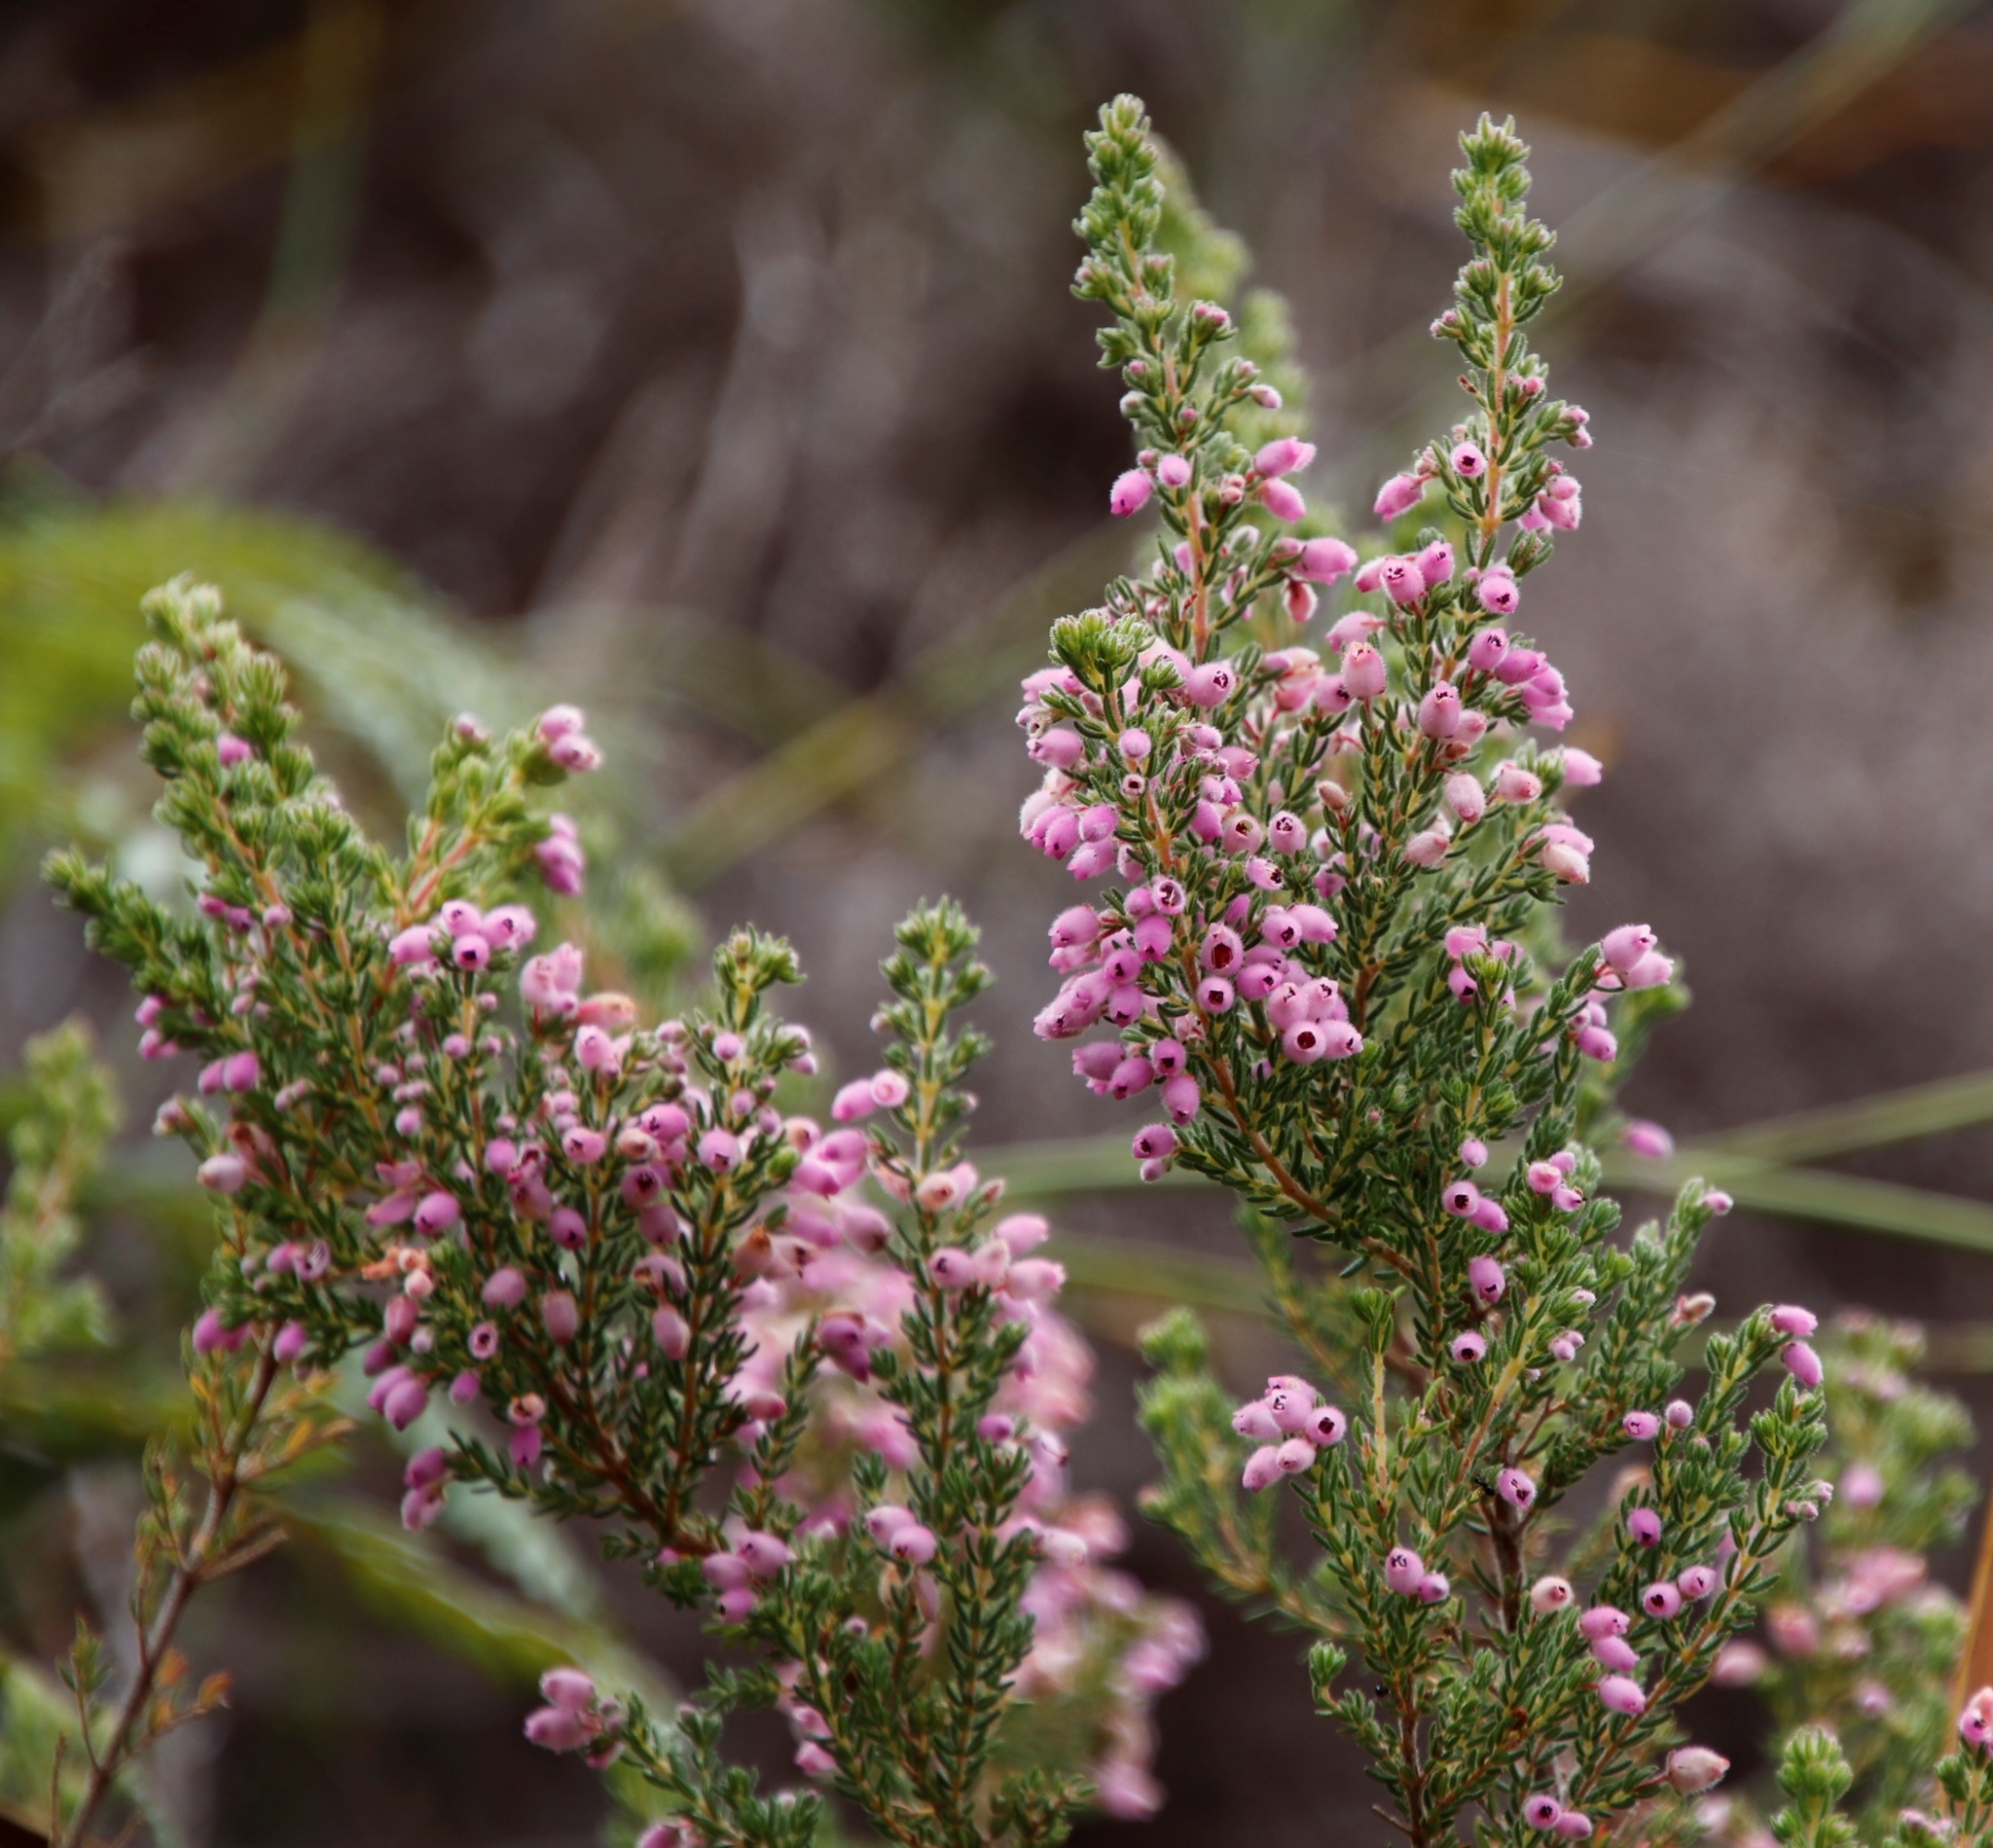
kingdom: Plantae
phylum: Tracheophyta
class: Magnoliopsida
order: Ericales
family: Ericaceae
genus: Erica
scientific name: Erica hirtiflora
